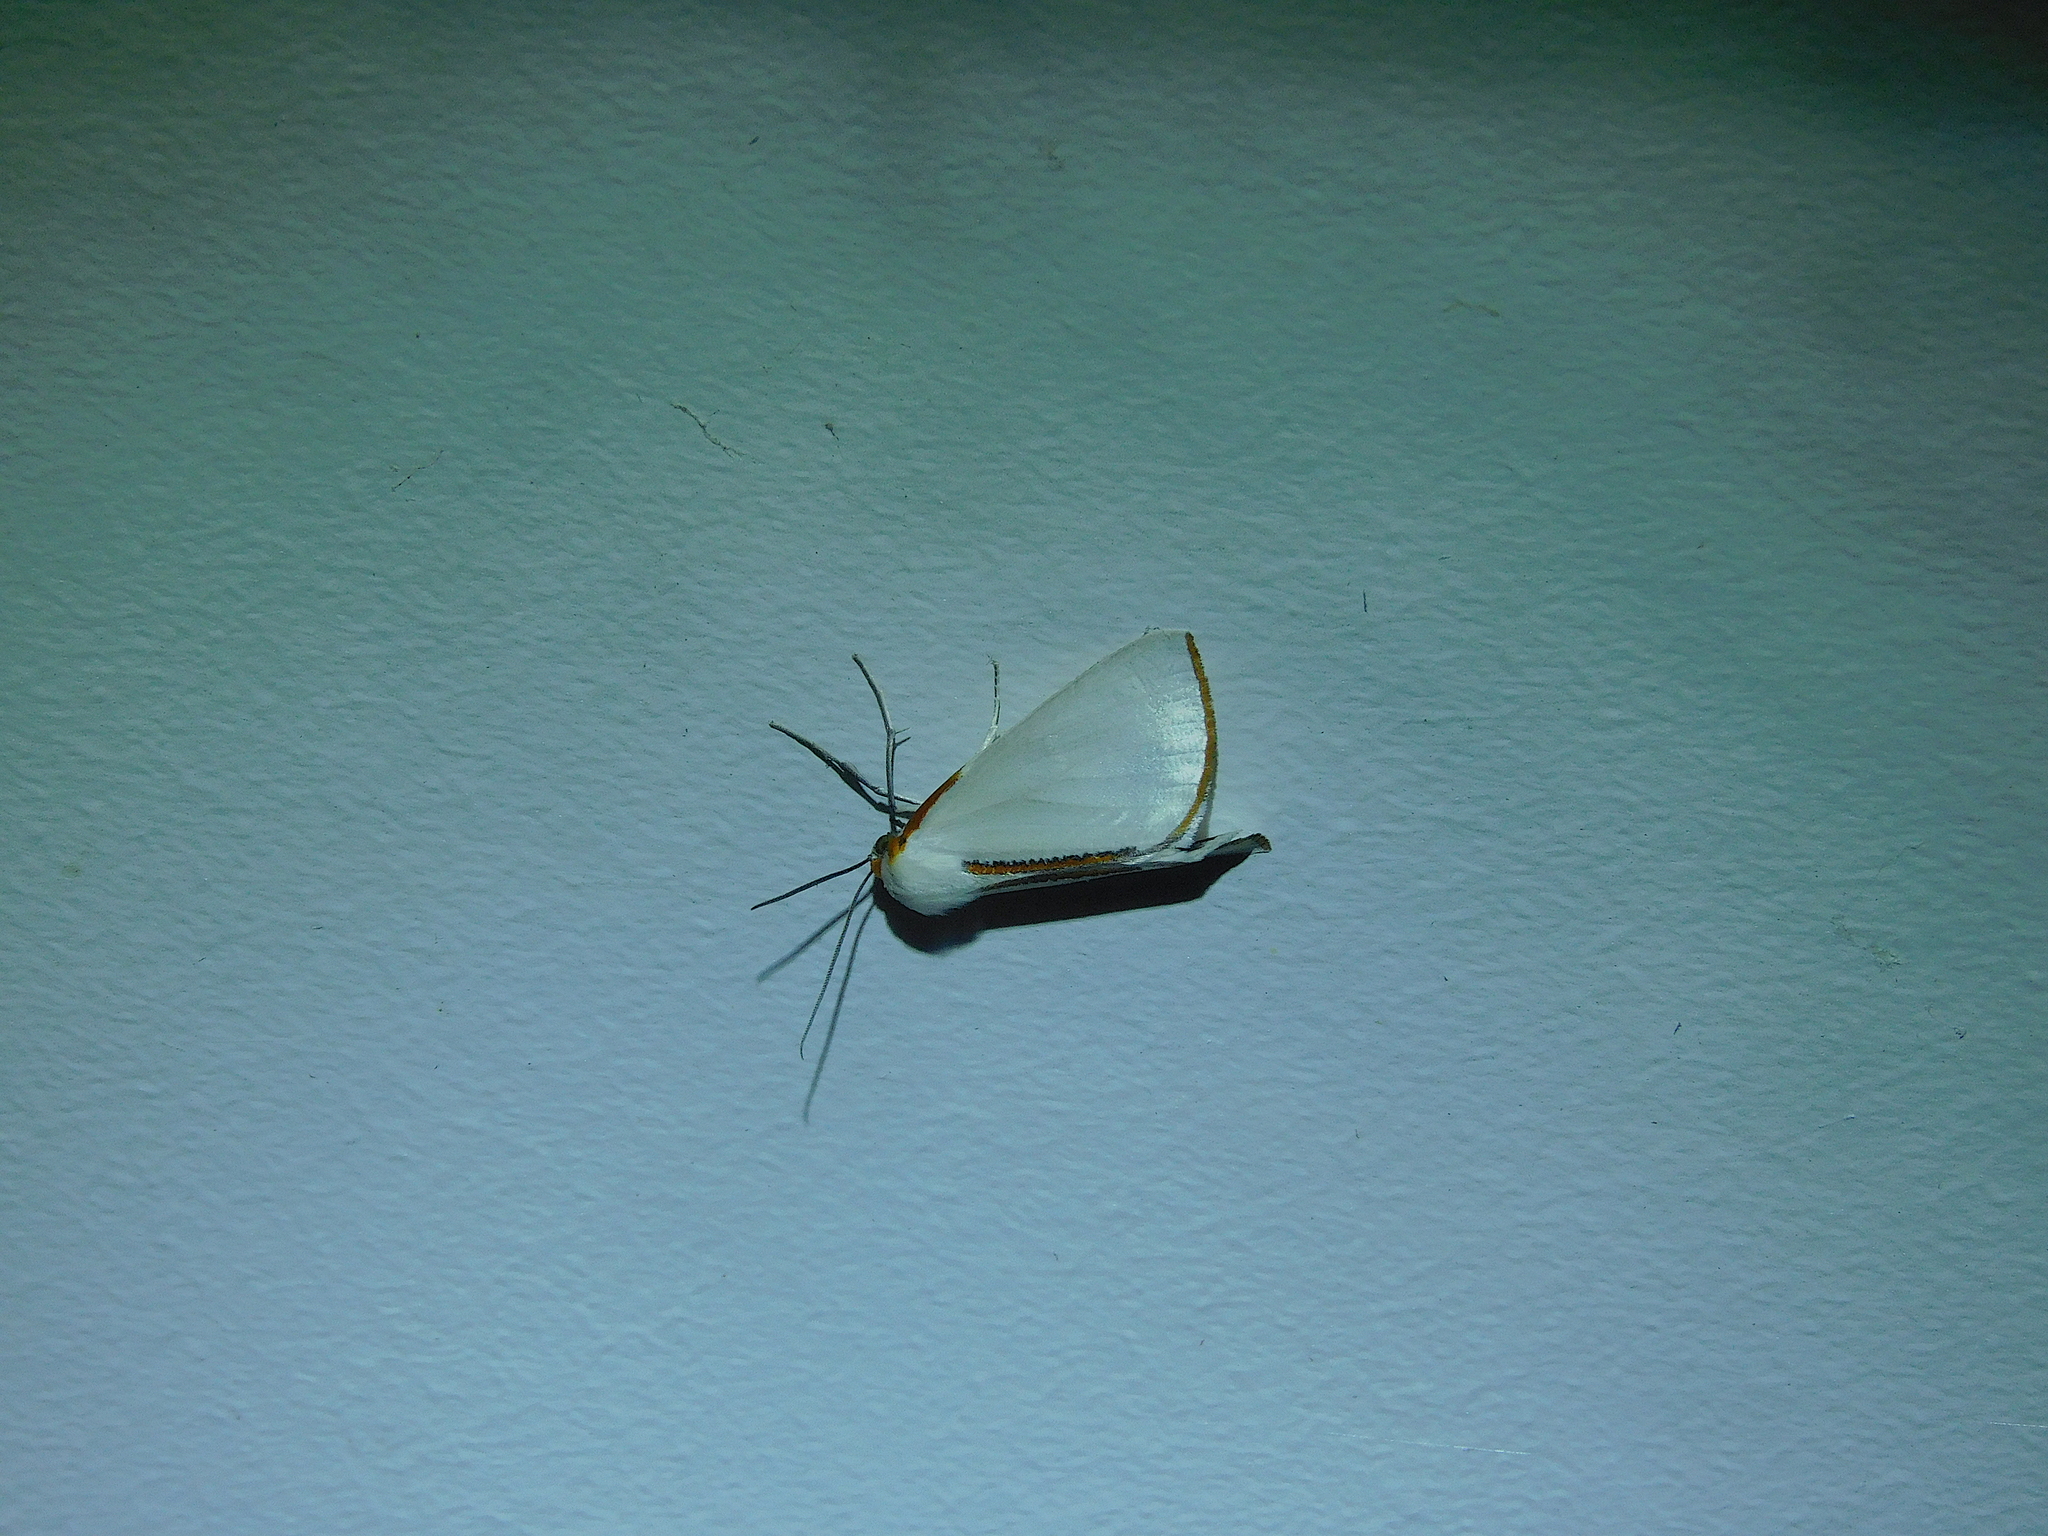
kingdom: Animalia
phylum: Arthropoda
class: Insecta
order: Lepidoptera
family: Geometridae
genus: Thalaina
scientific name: Thalaina selenaea
